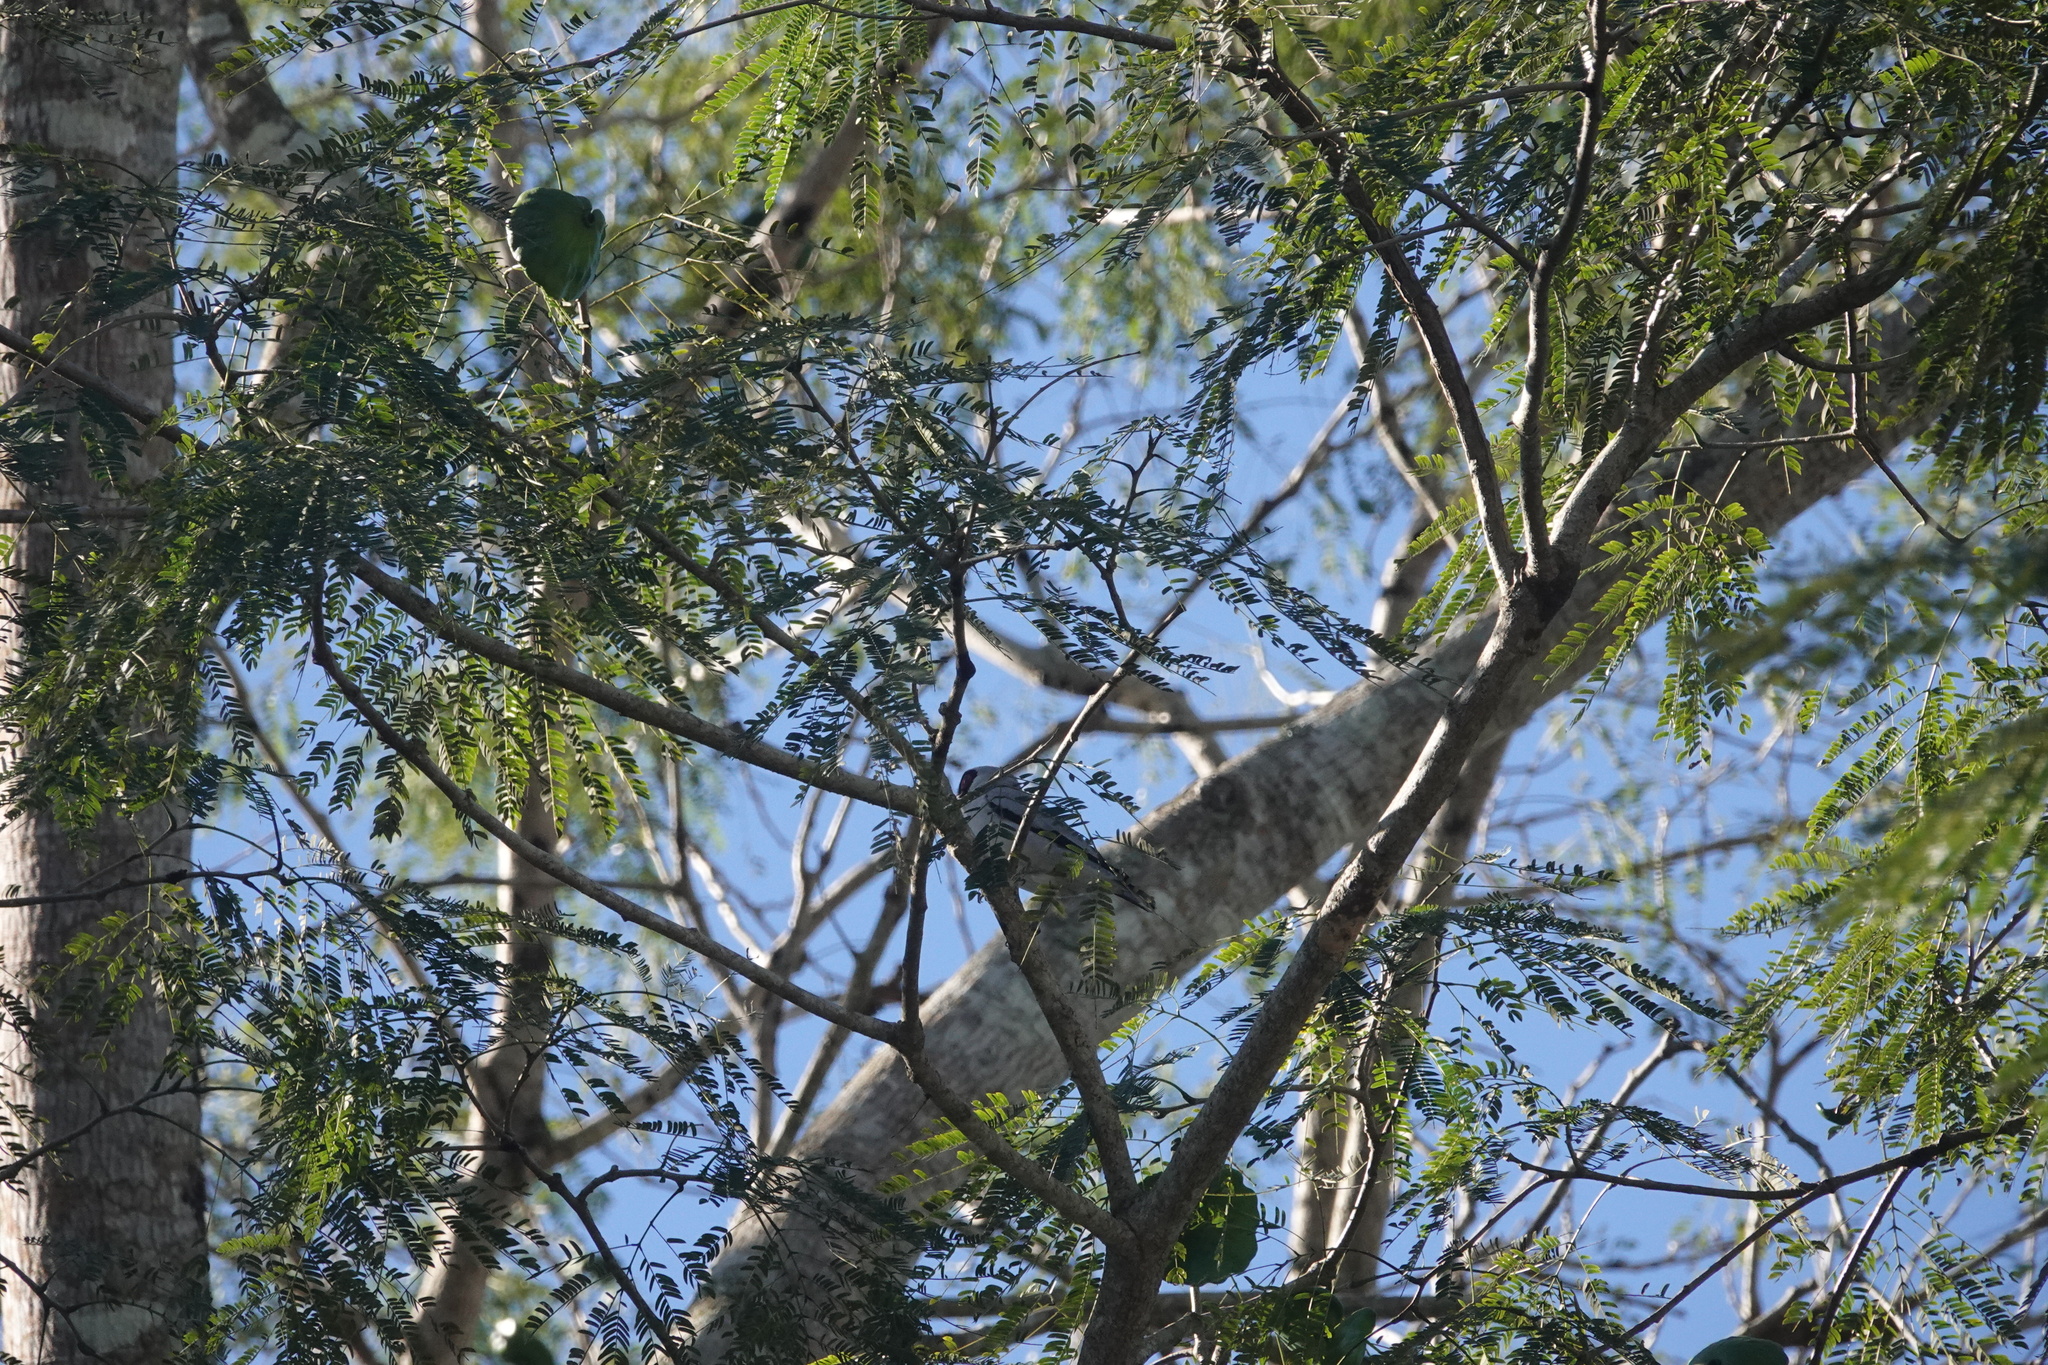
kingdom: Animalia
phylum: Chordata
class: Aves
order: Passeriformes
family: Cotingidae
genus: Tityra
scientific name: Tityra semifasciata
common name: Masked tityra
